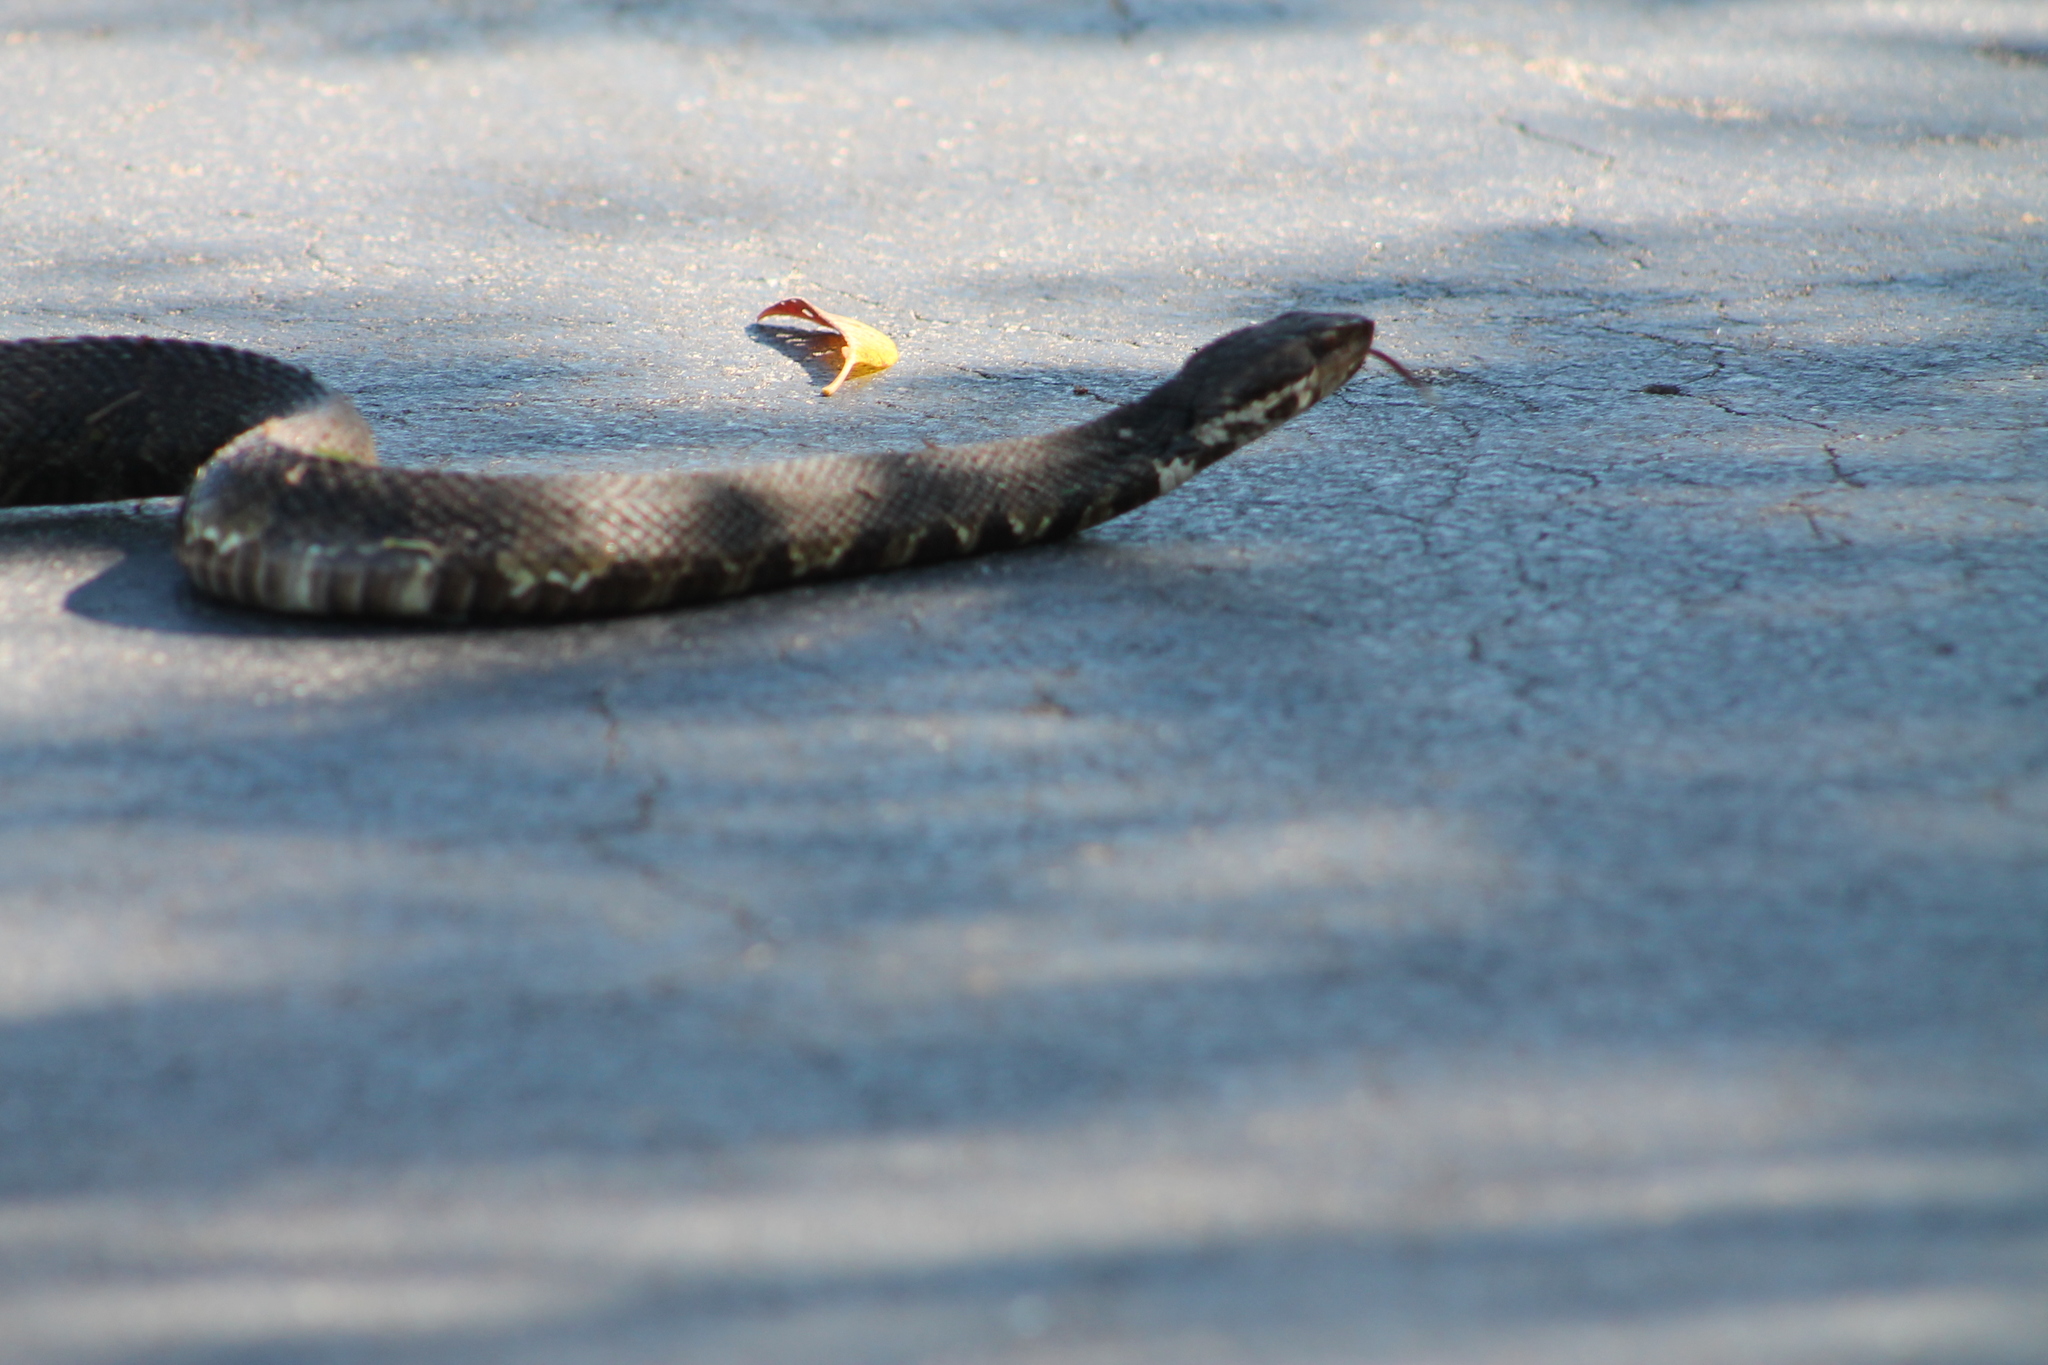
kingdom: Animalia
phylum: Chordata
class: Squamata
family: Viperidae
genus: Agkistrodon
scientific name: Agkistrodon piscivorus
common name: Cottonmouth
